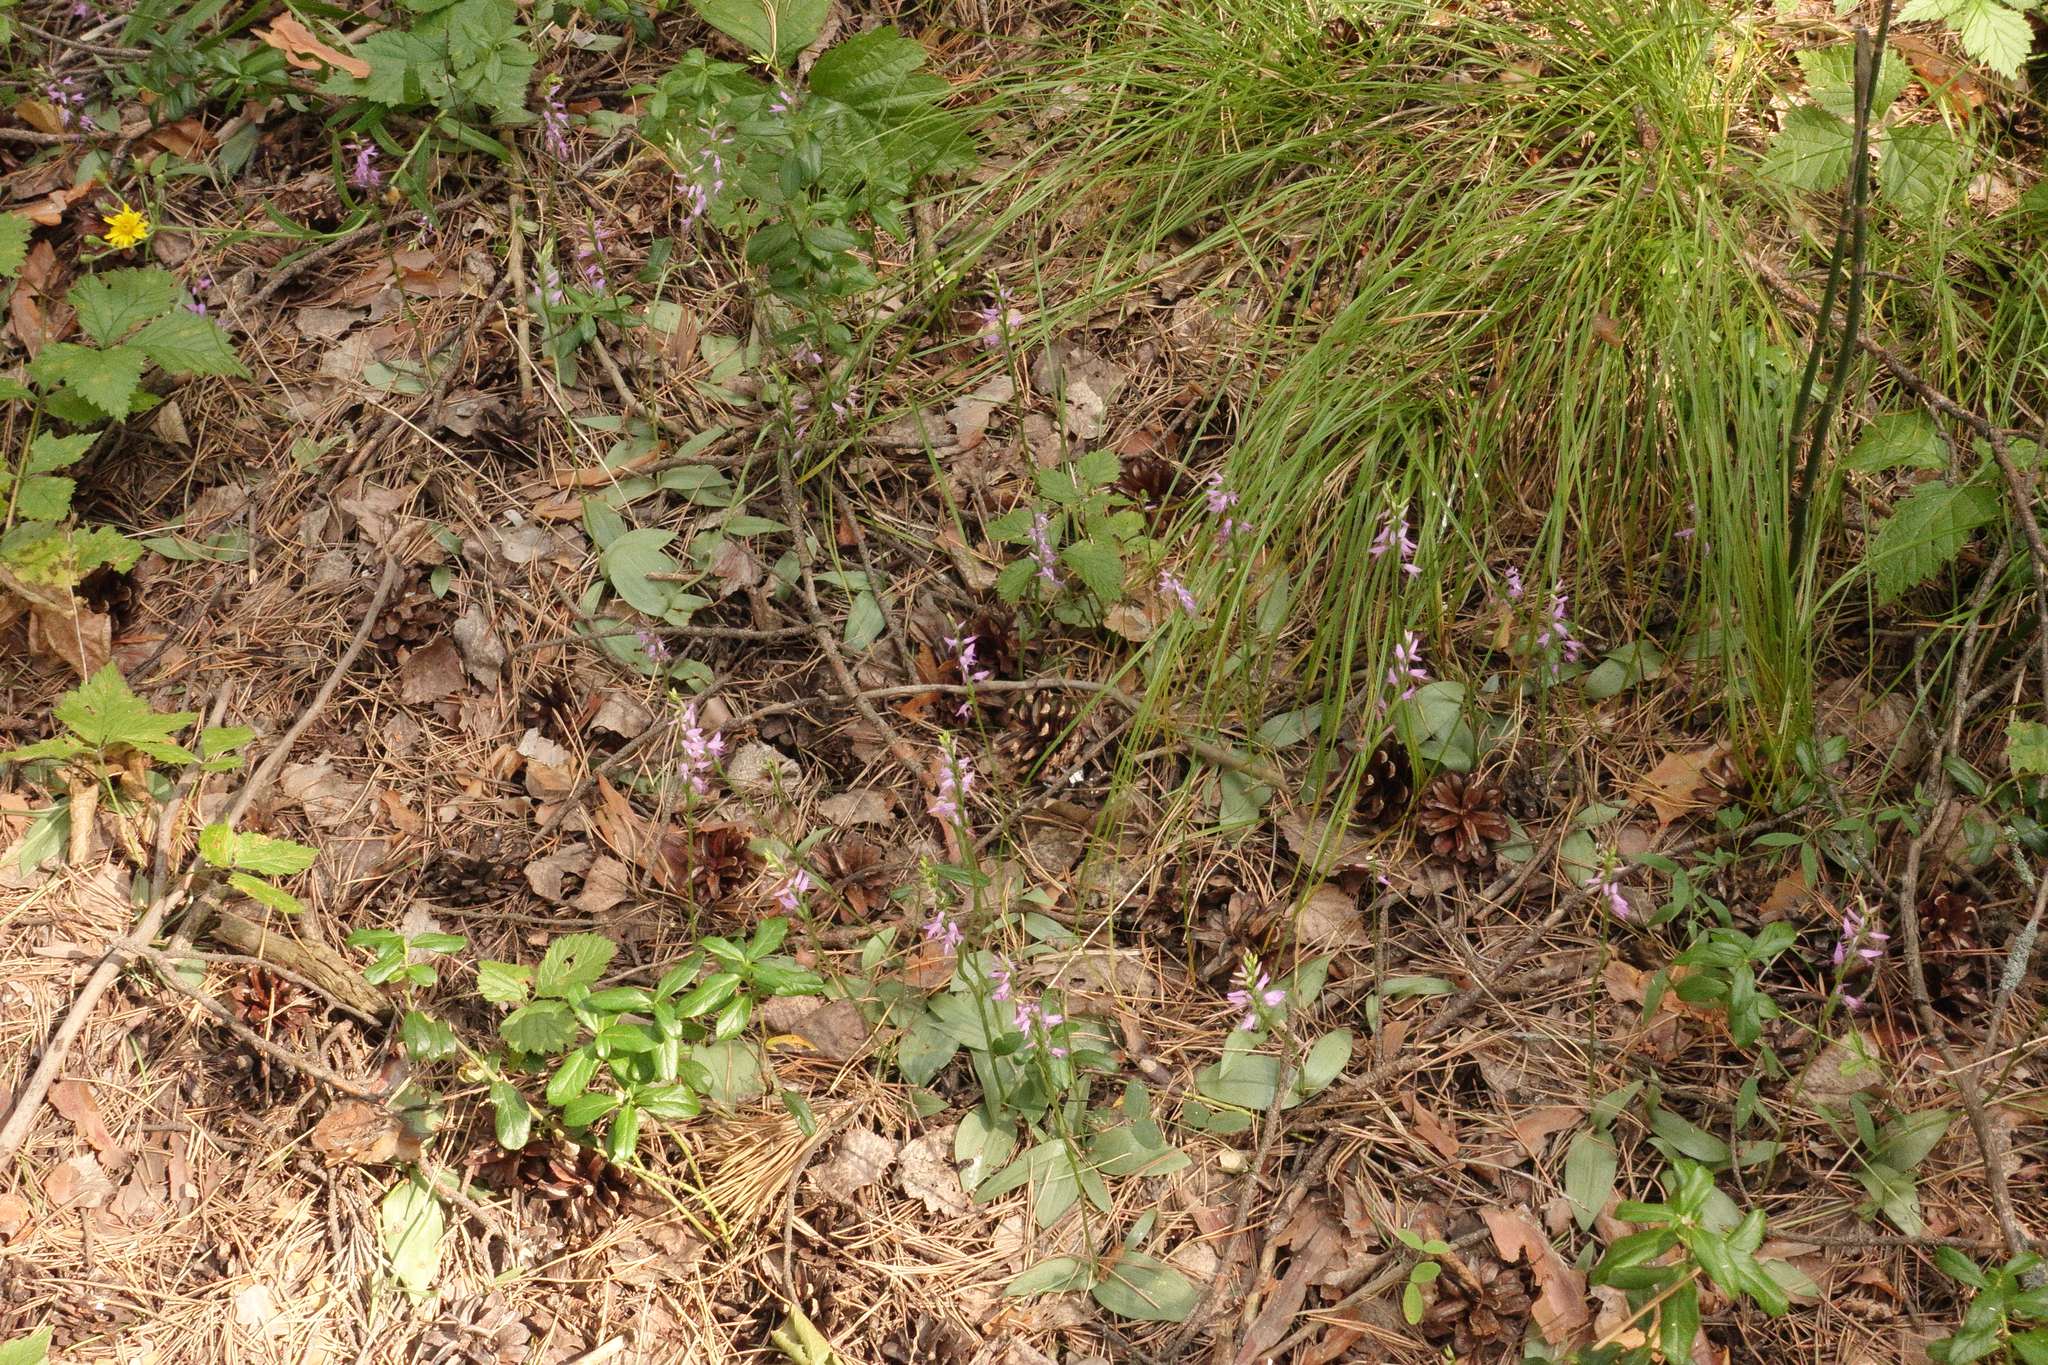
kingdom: Plantae
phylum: Tracheophyta
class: Liliopsida
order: Asparagales
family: Orchidaceae
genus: Hemipilia
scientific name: Hemipilia cucullata
